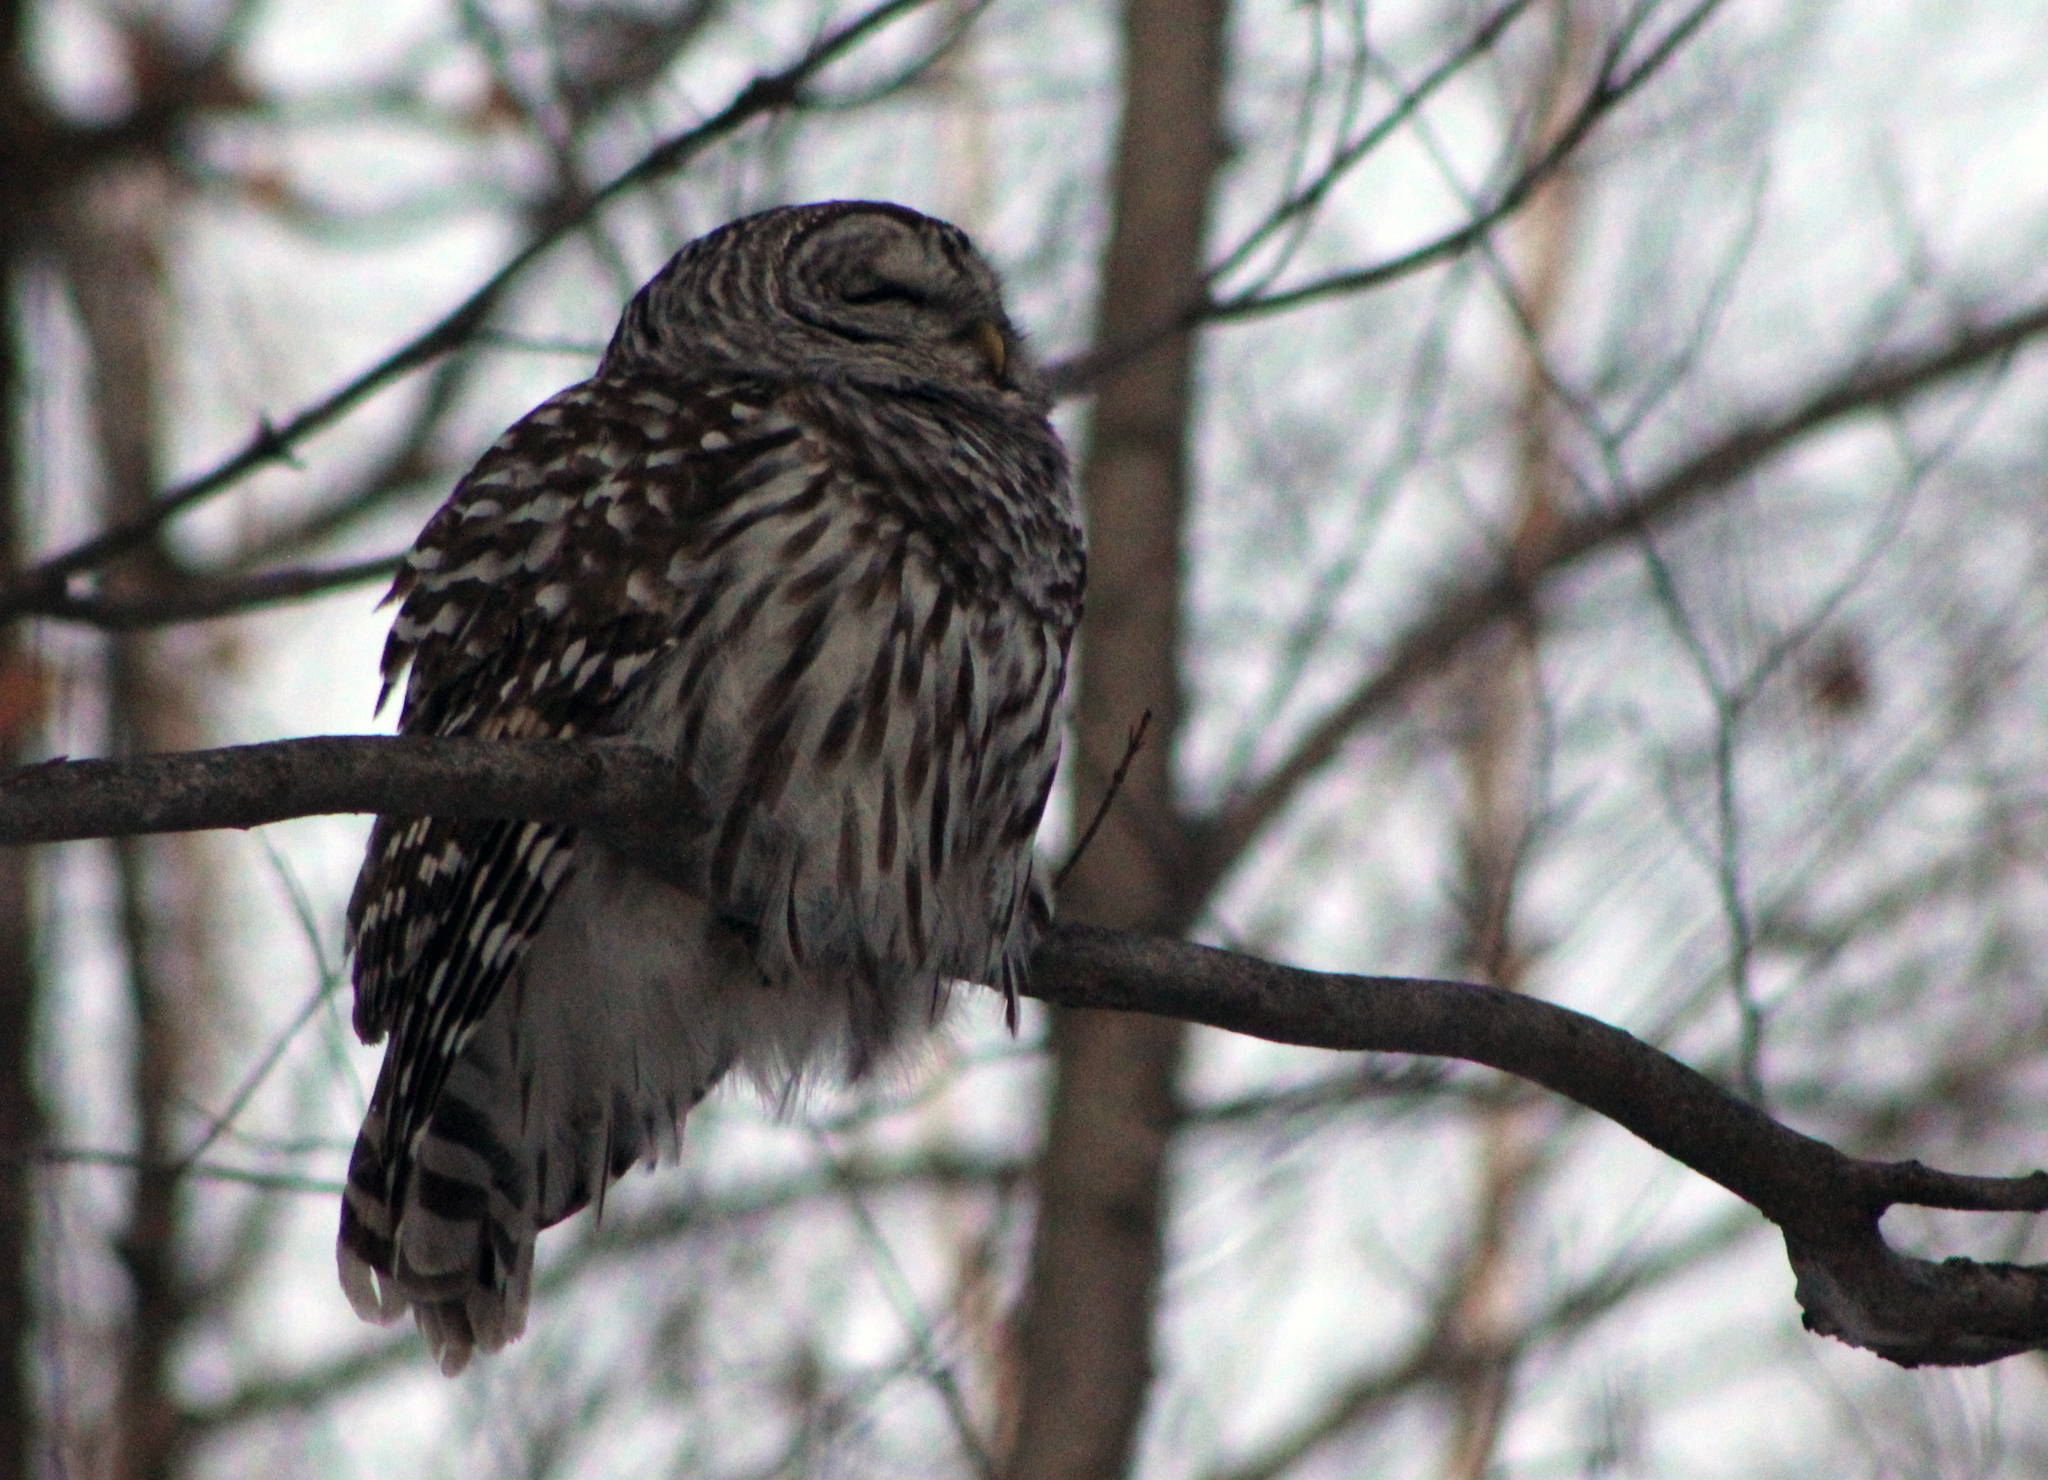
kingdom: Animalia
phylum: Chordata
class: Aves
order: Strigiformes
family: Strigidae
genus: Strix
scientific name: Strix varia
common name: Barred owl
